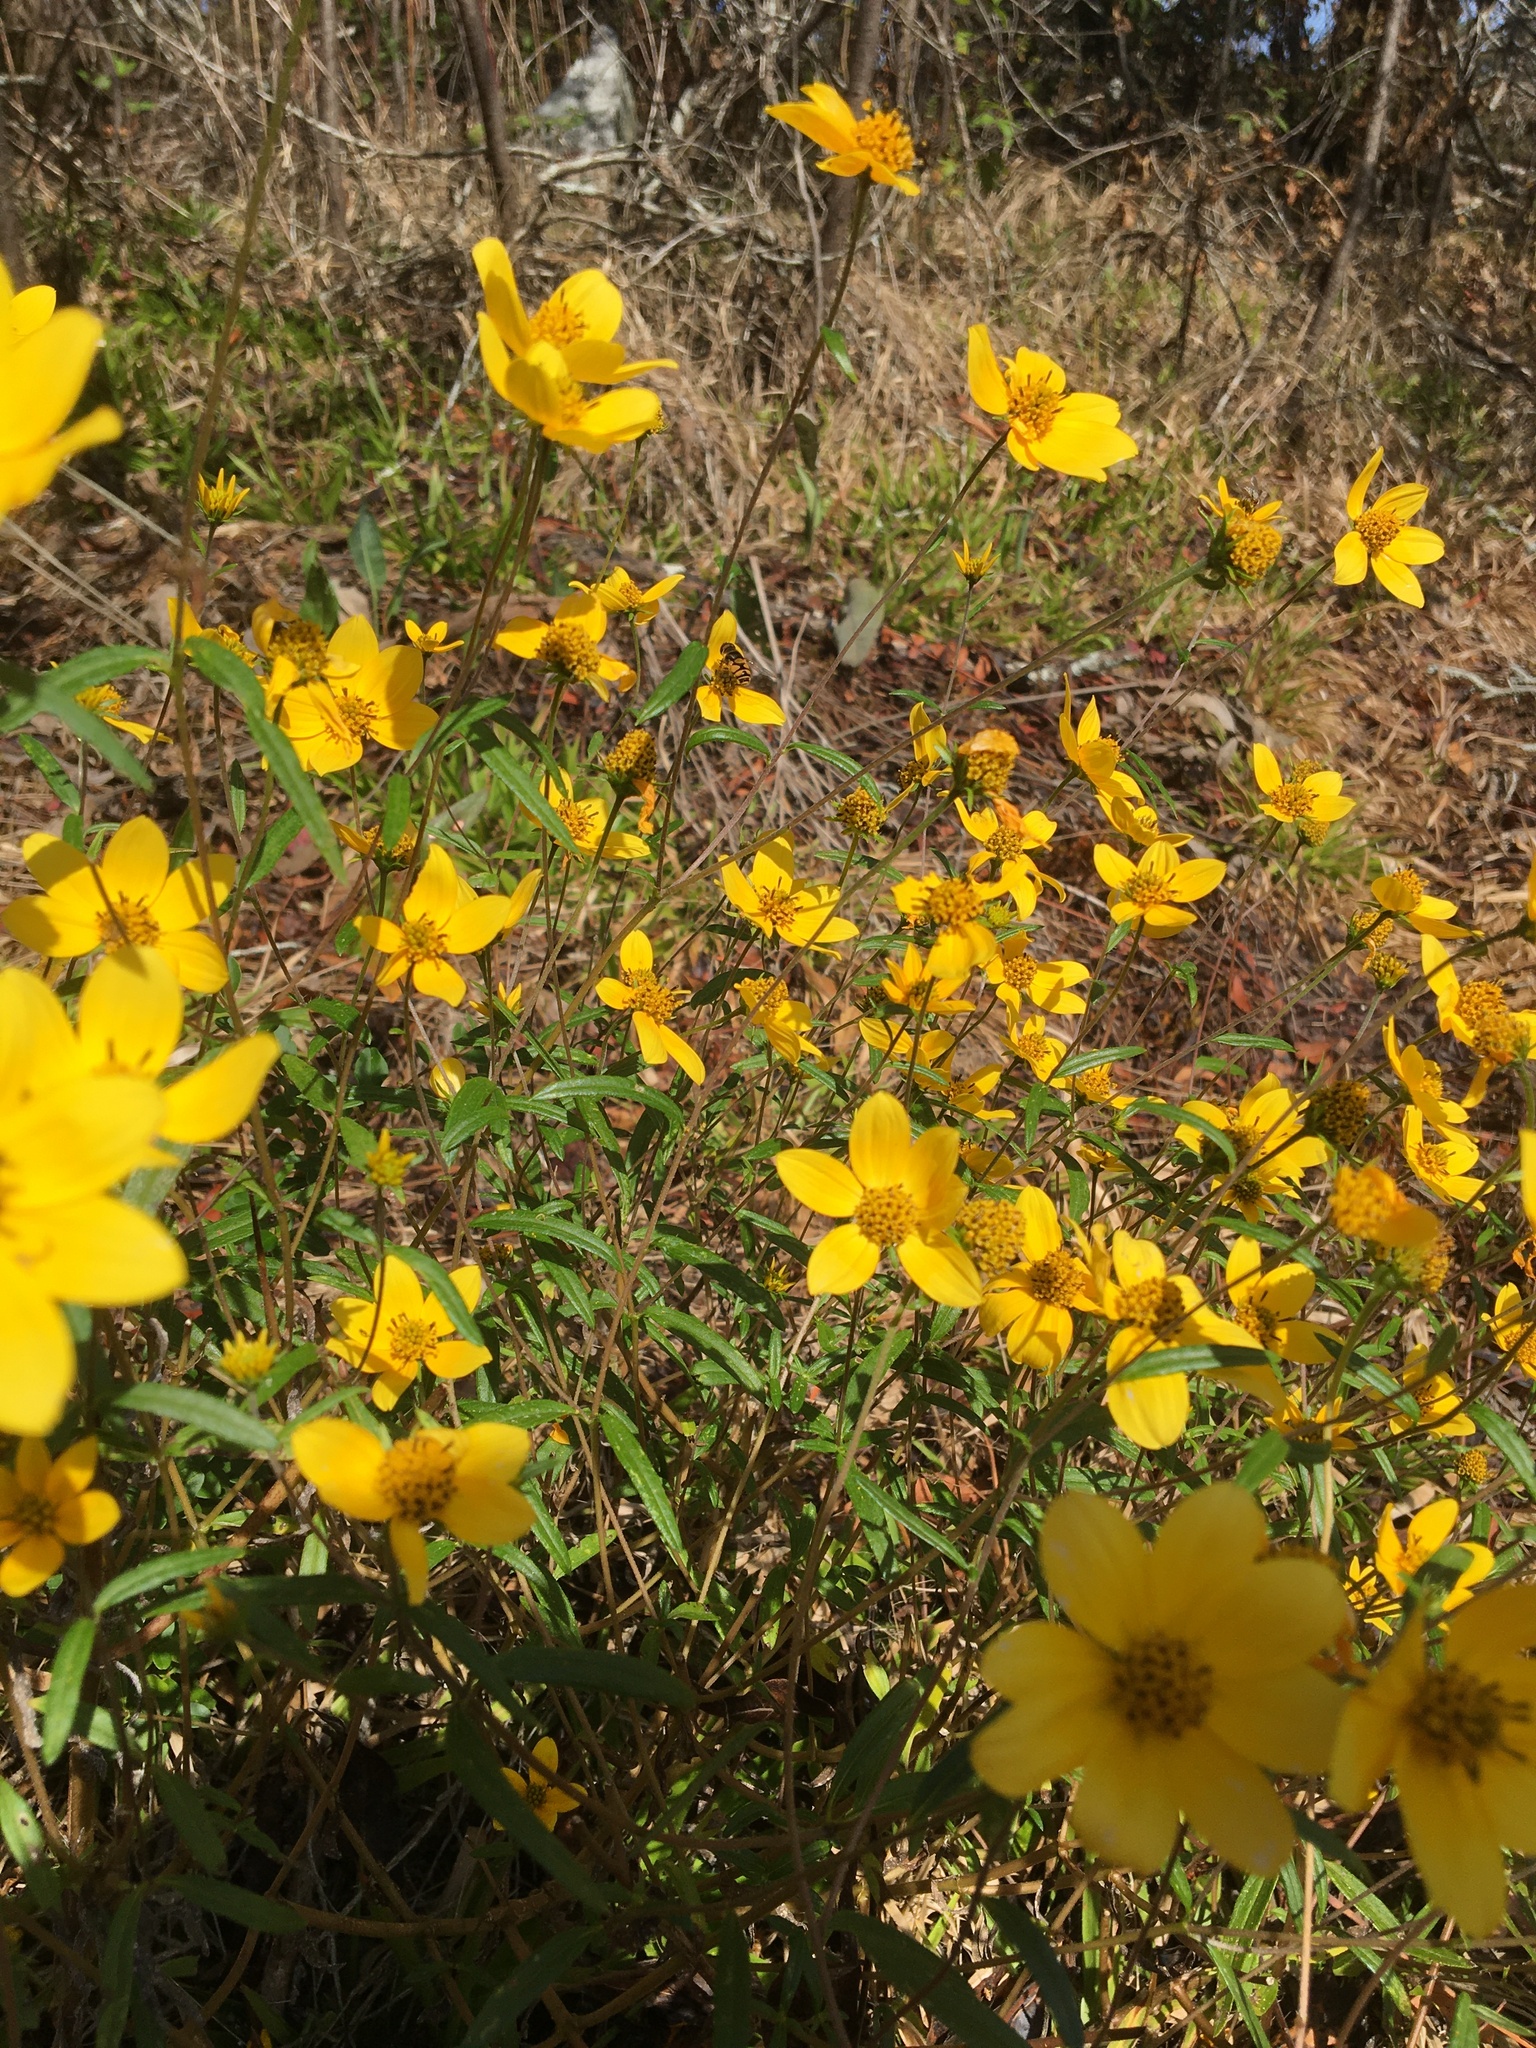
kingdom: Plantae
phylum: Tracheophyta
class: Magnoliopsida
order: Asterales
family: Asteraceae
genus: Helianthus
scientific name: Helianthus porteri
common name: Porter's sunflower
